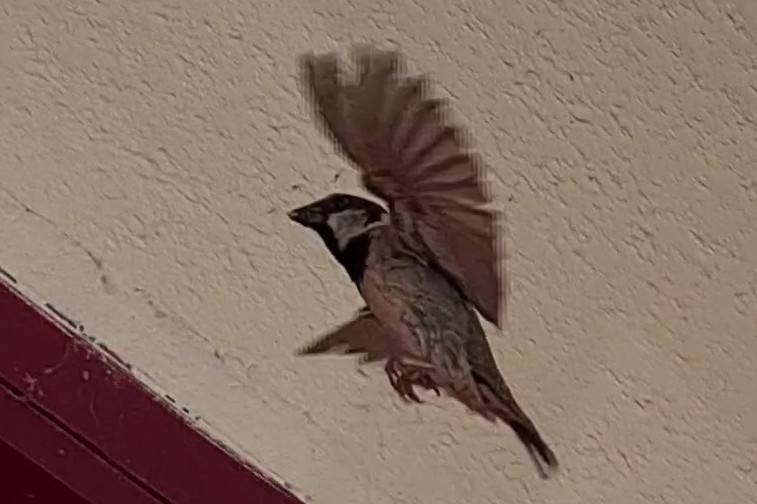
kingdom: Animalia
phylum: Chordata
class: Aves
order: Passeriformes
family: Passeridae
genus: Passer
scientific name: Passer domesticus
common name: House sparrow
